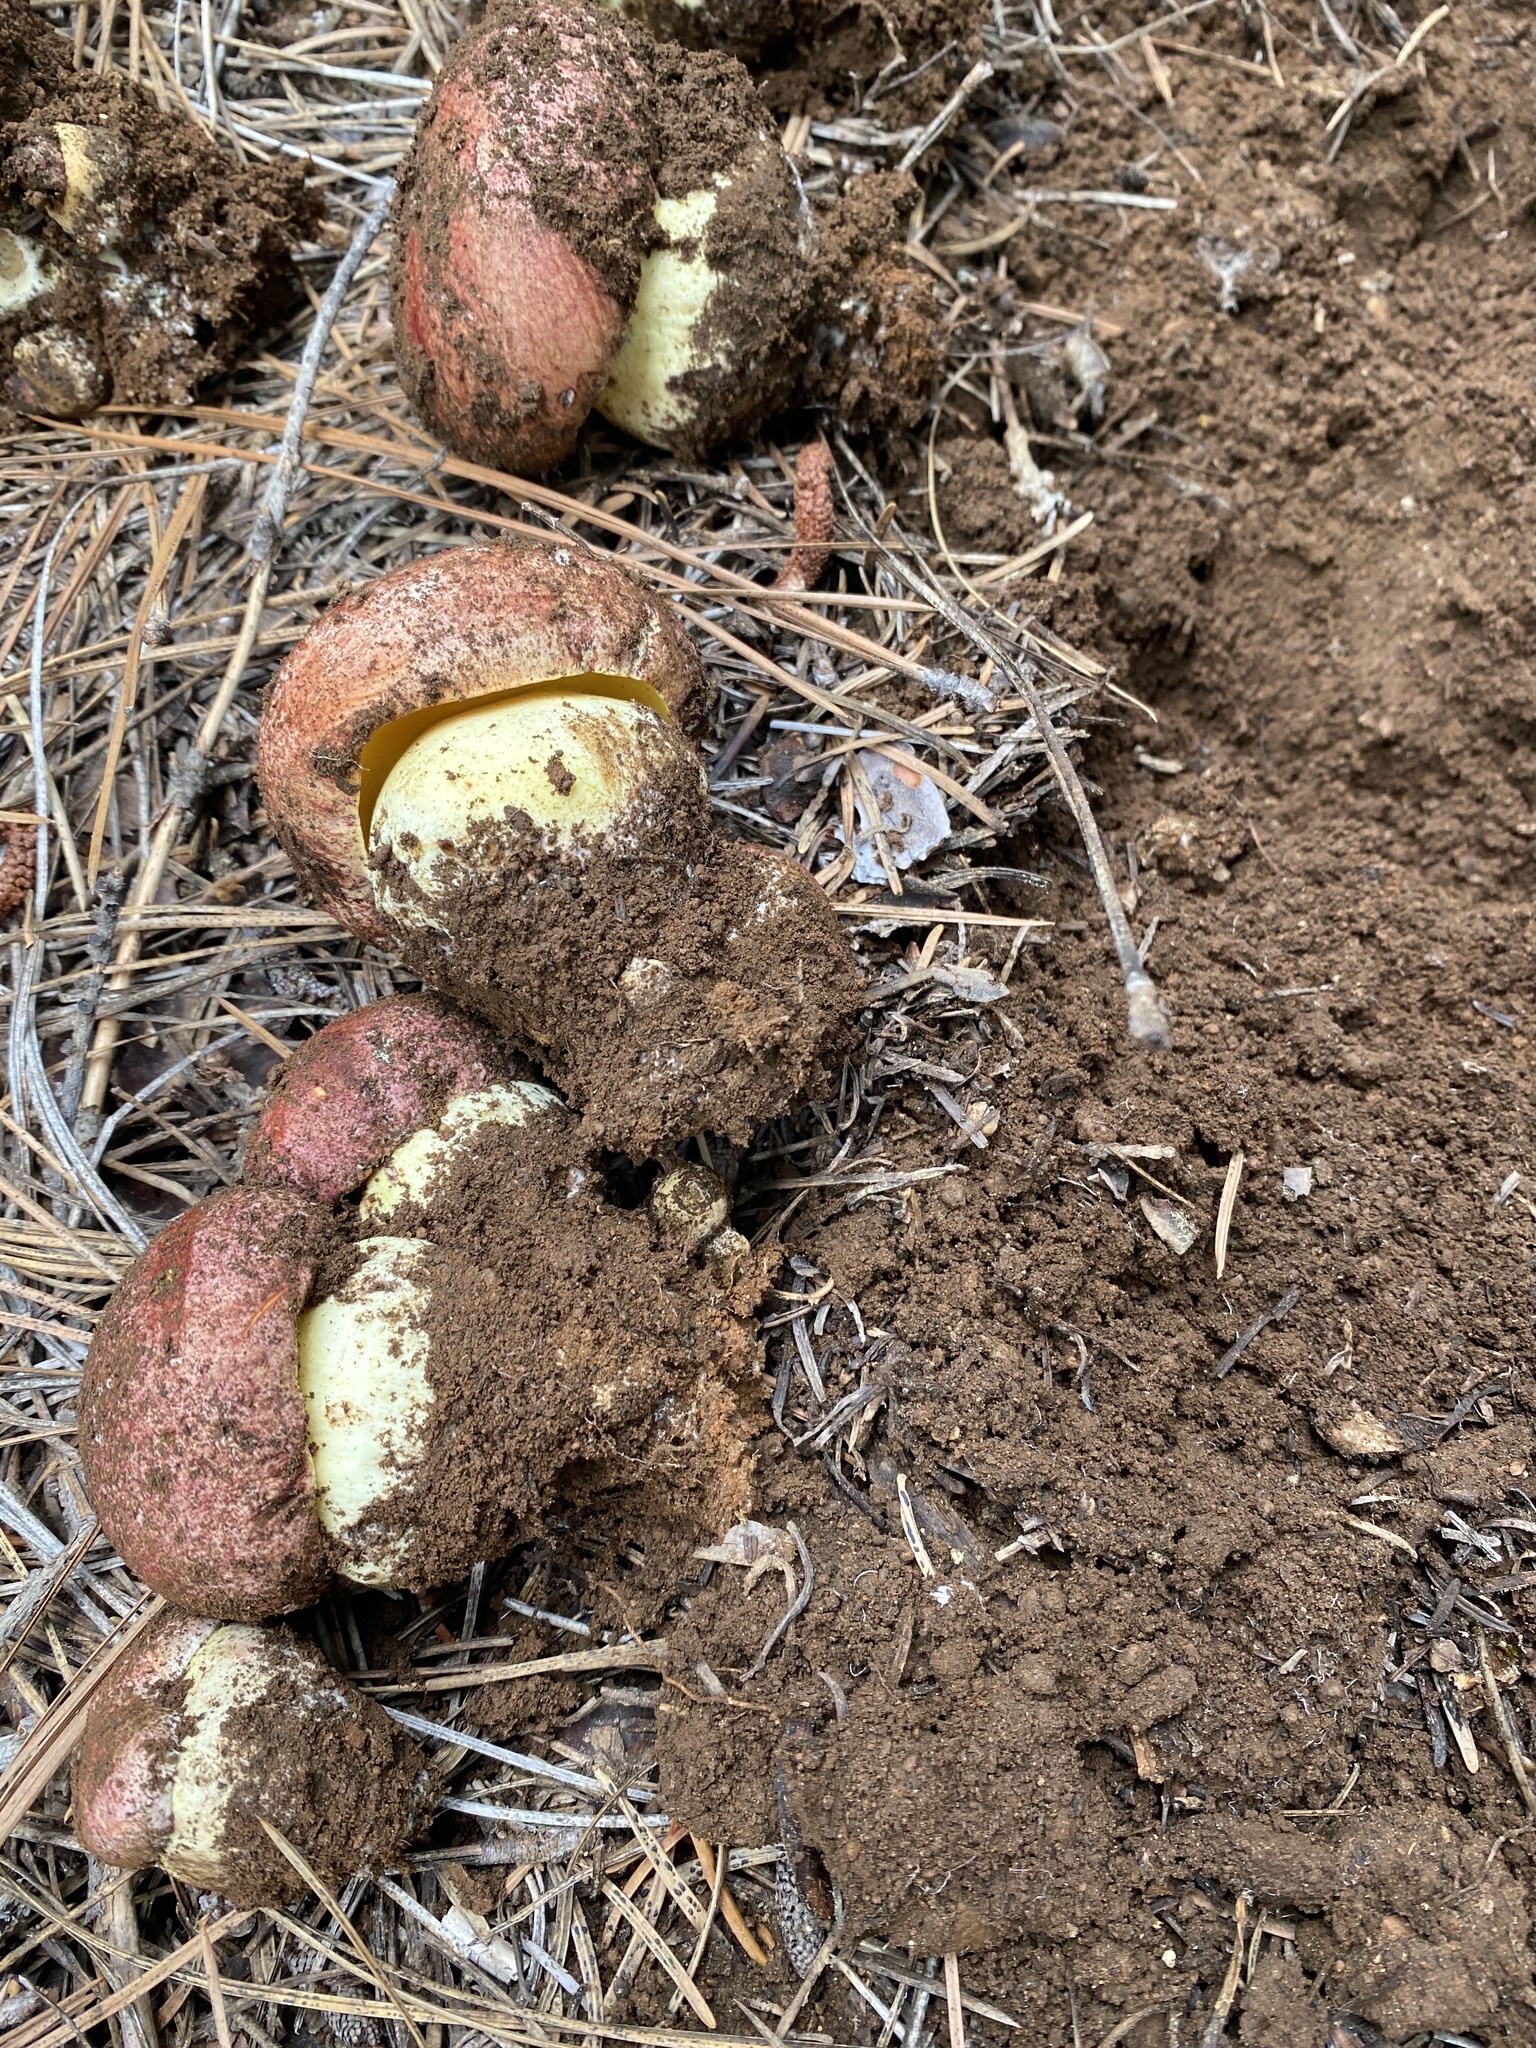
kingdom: Fungi
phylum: Basidiomycota
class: Agaricomycetes
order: Boletales
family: Boletaceae
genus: Butyriboletus
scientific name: Butyriboletus primiregius
